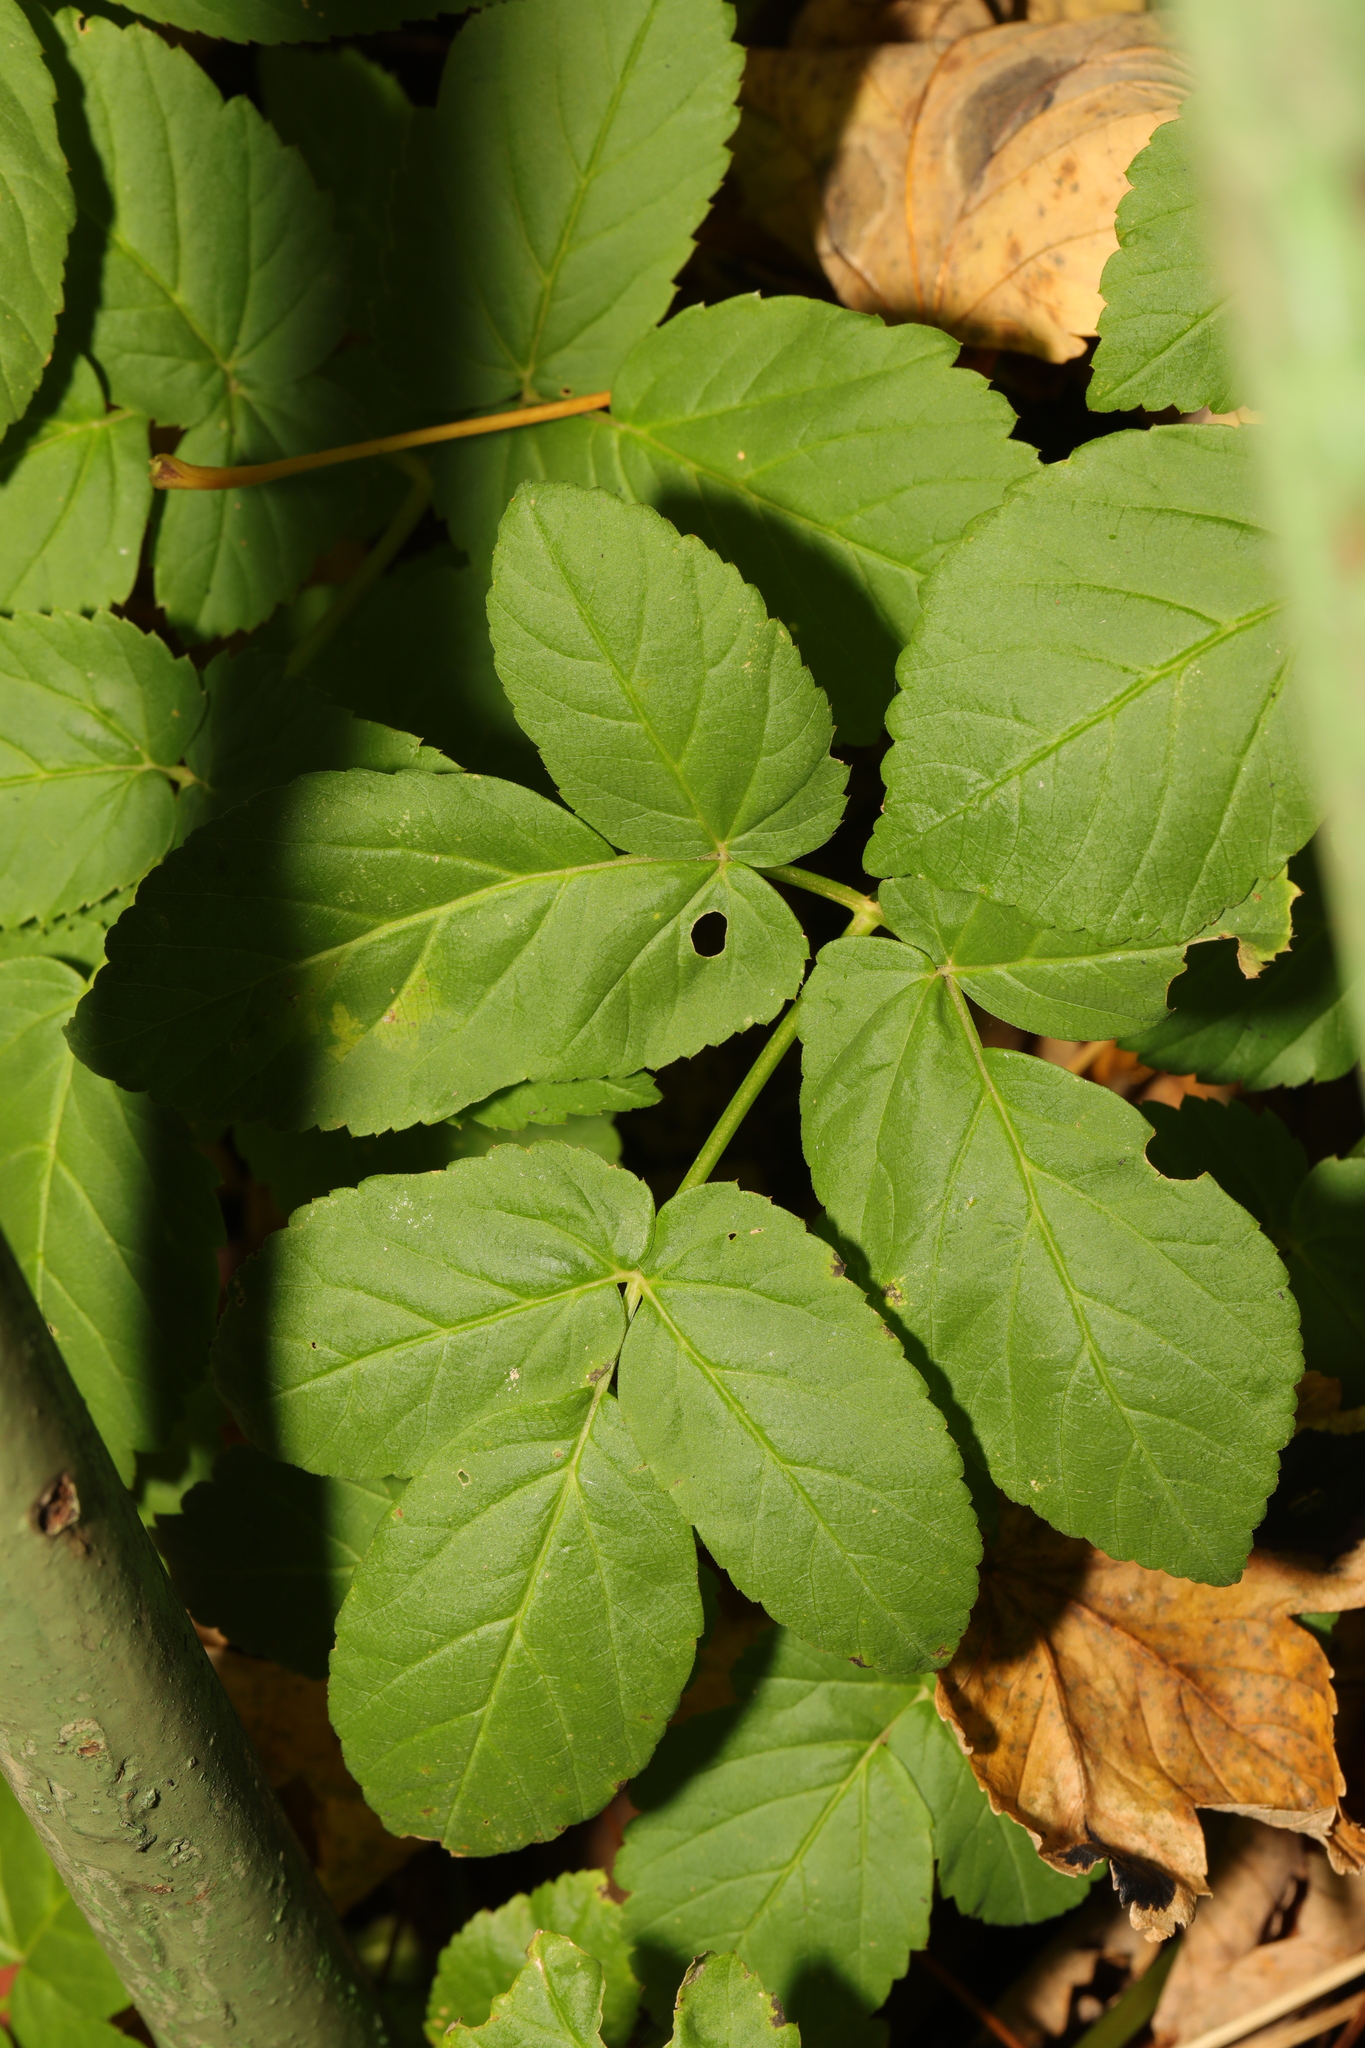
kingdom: Plantae
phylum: Tracheophyta
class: Magnoliopsida
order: Apiales
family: Apiaceae
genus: Aegopodium
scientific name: Aegopodium podagraria
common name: Ground-elder
